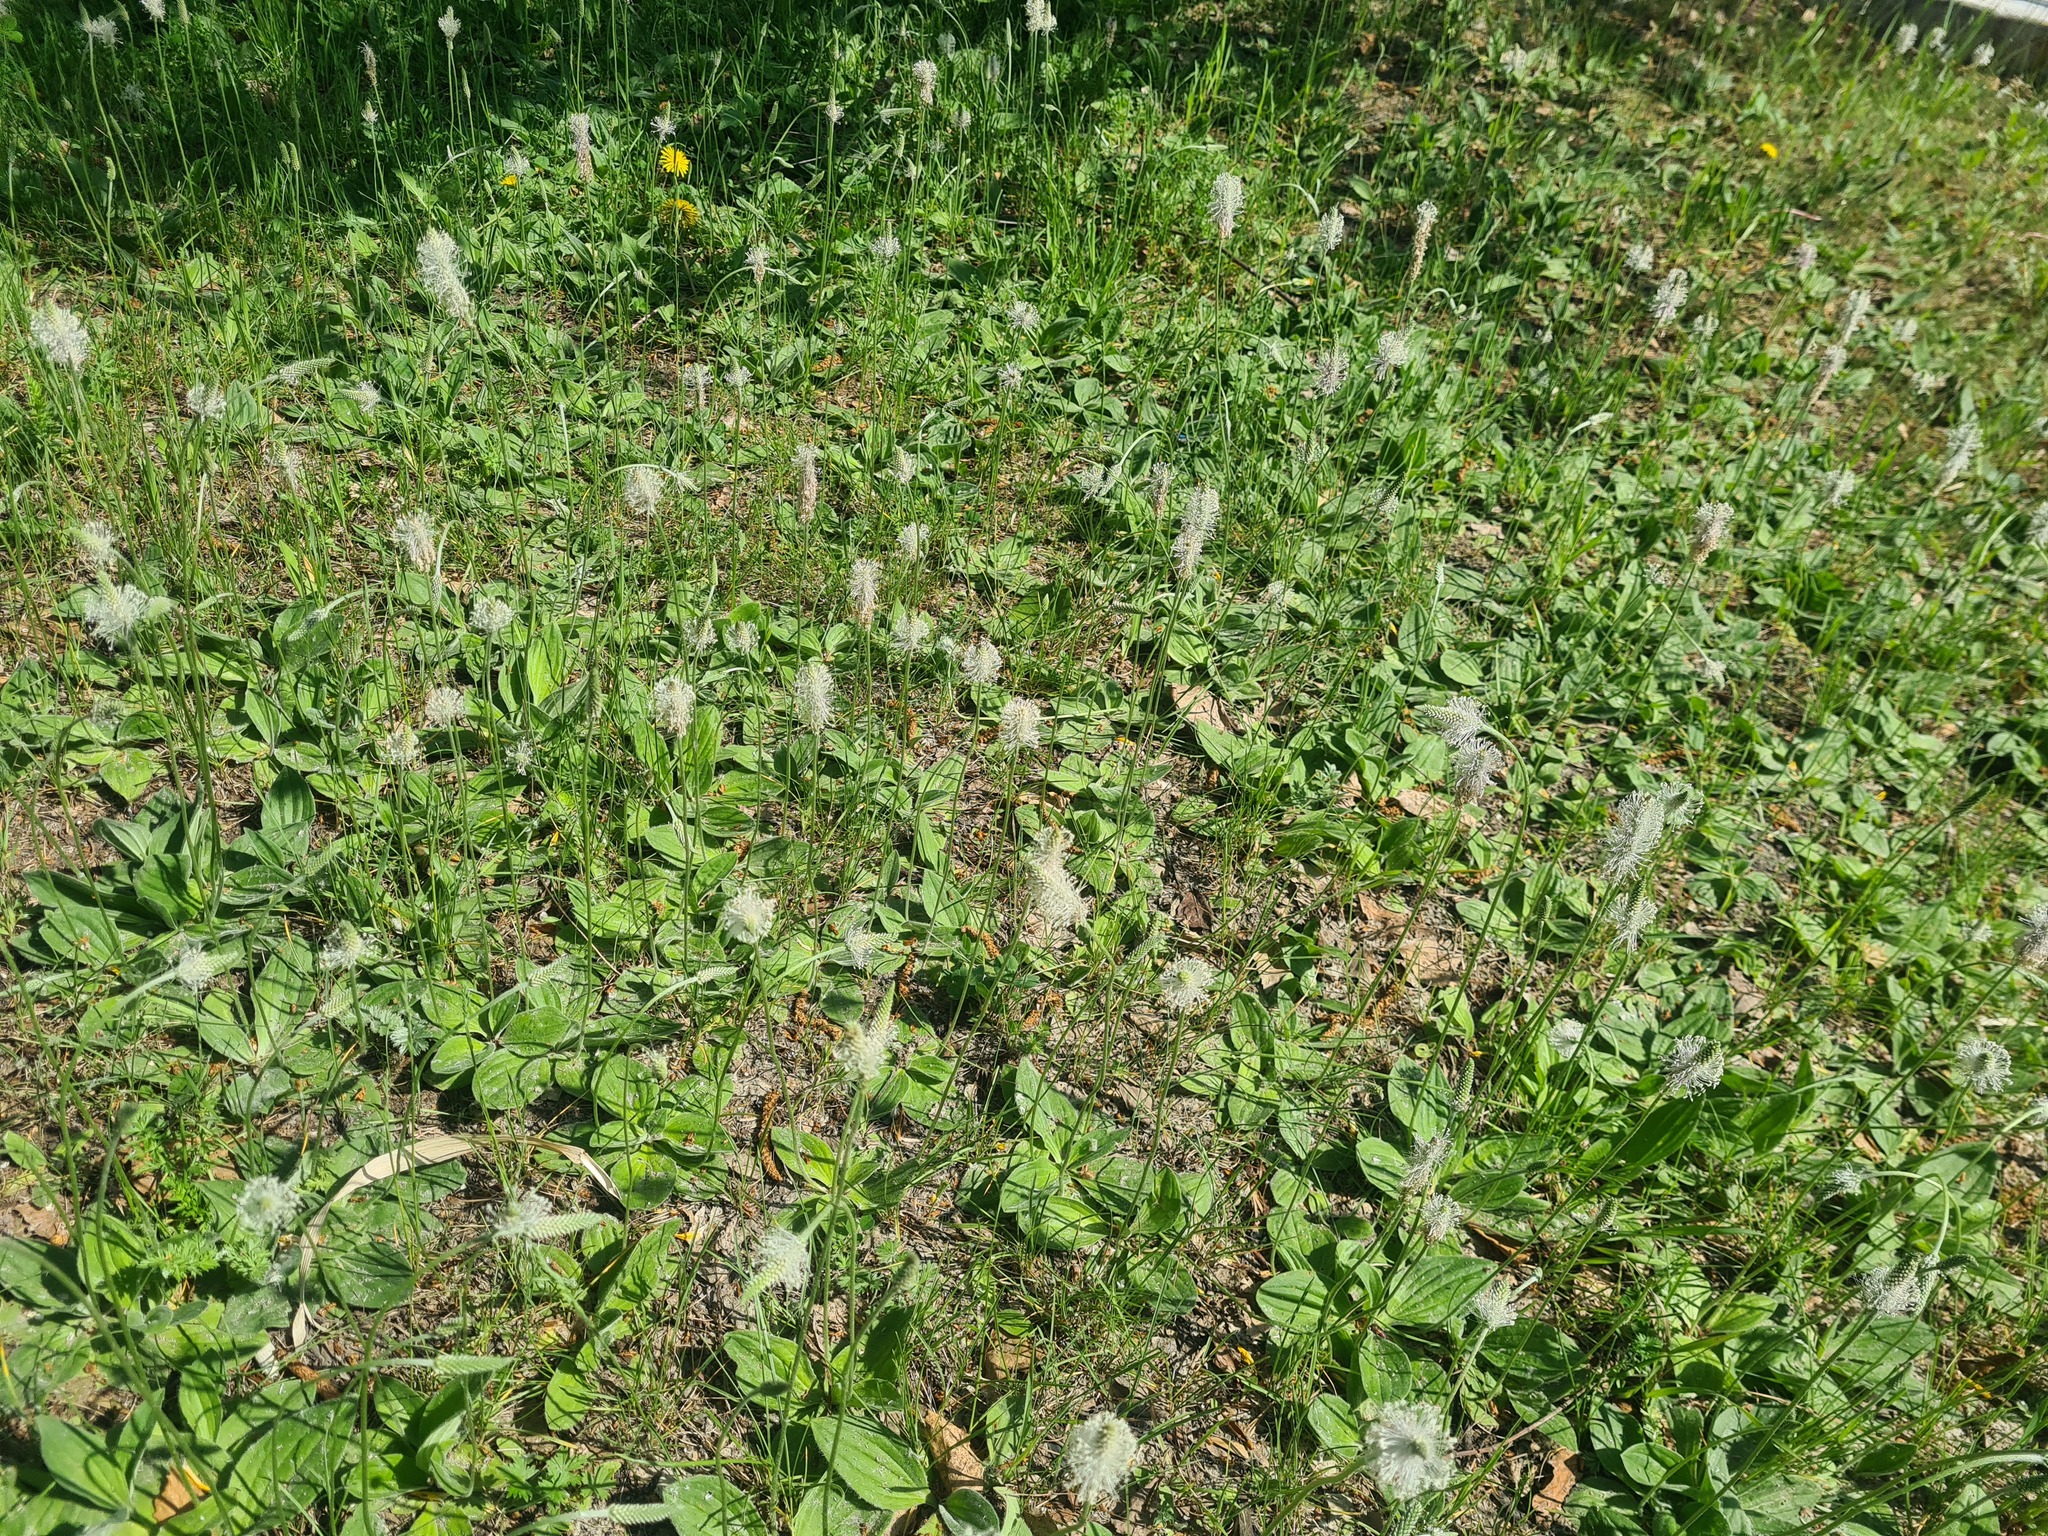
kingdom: Plantae
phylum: Tracheophyta
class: Magnoliopsida
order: Lamiales
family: Plantaginaceae
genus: Plantago
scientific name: Plantago media
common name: Hoary plantain
